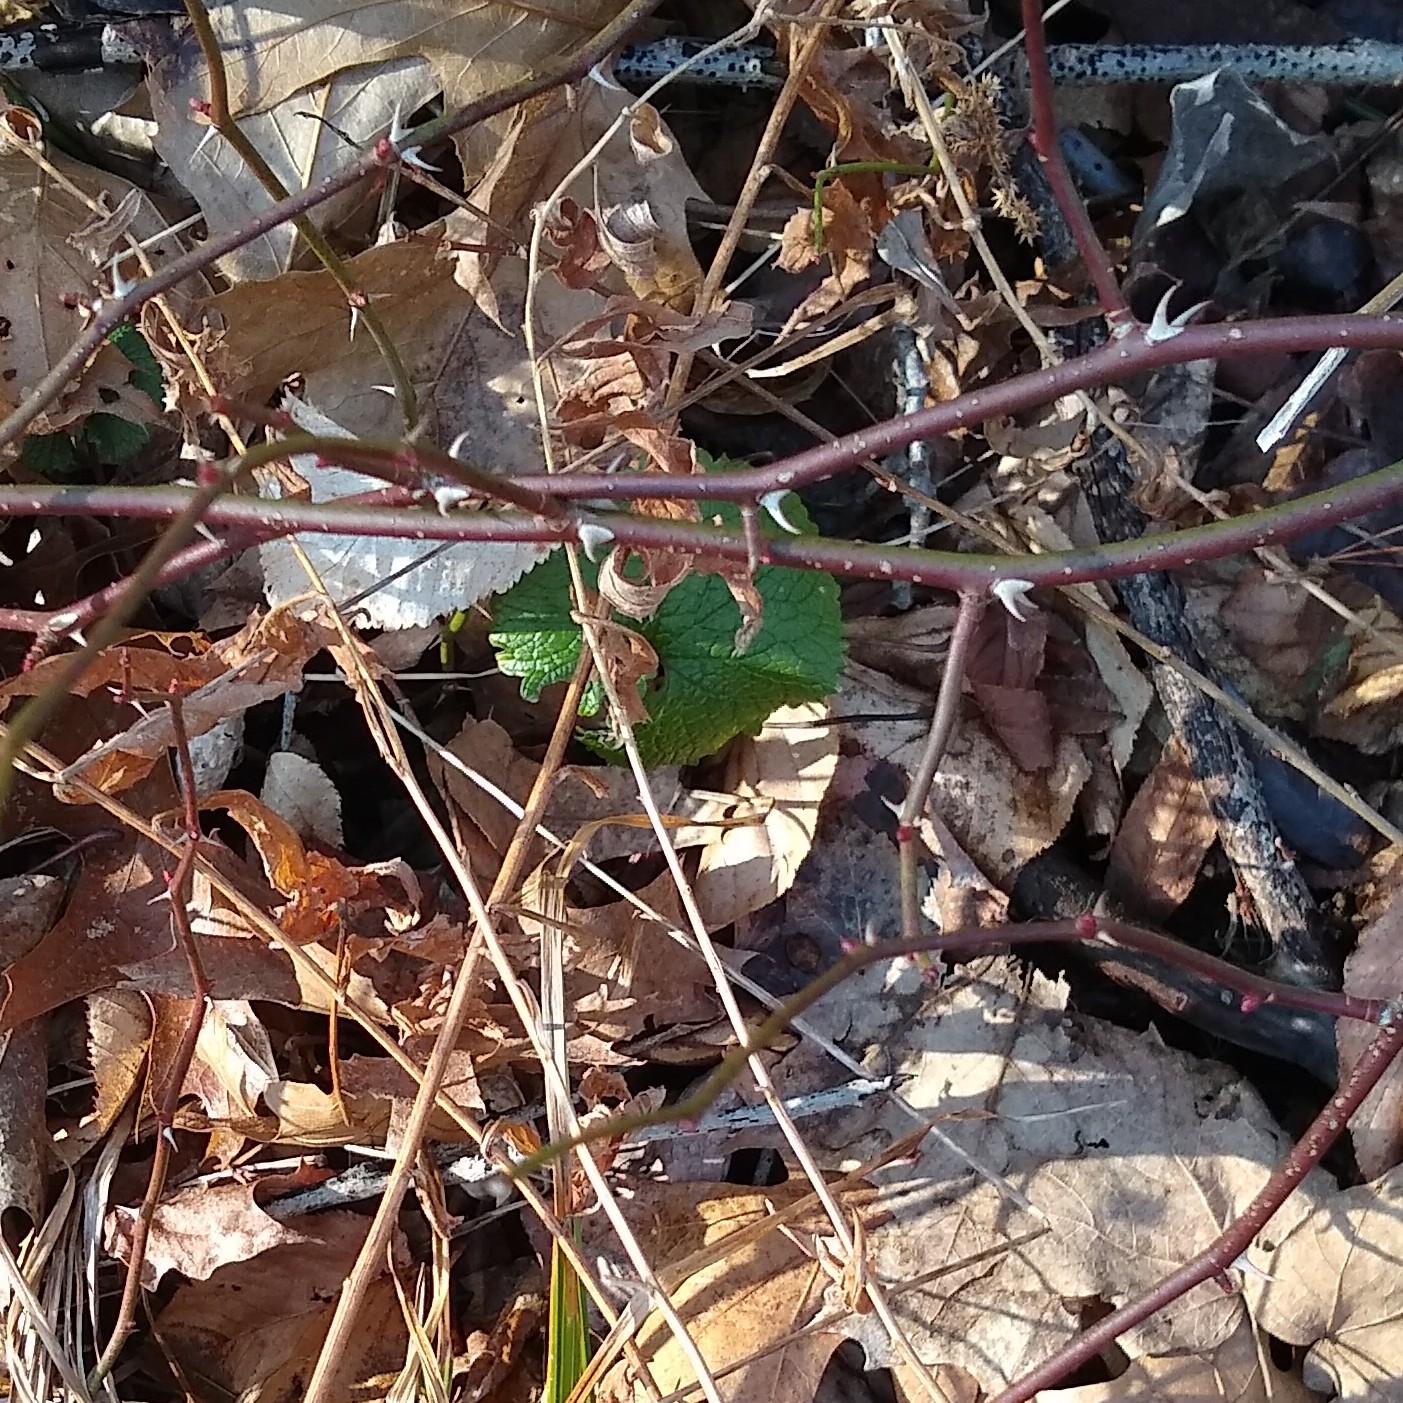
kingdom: Plantae
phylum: Tracheophyta
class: Magnoliopsida
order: Brassicales
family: Brassicaceae
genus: Alliaria
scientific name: Alliaria petiolata
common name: Garlic mustard
